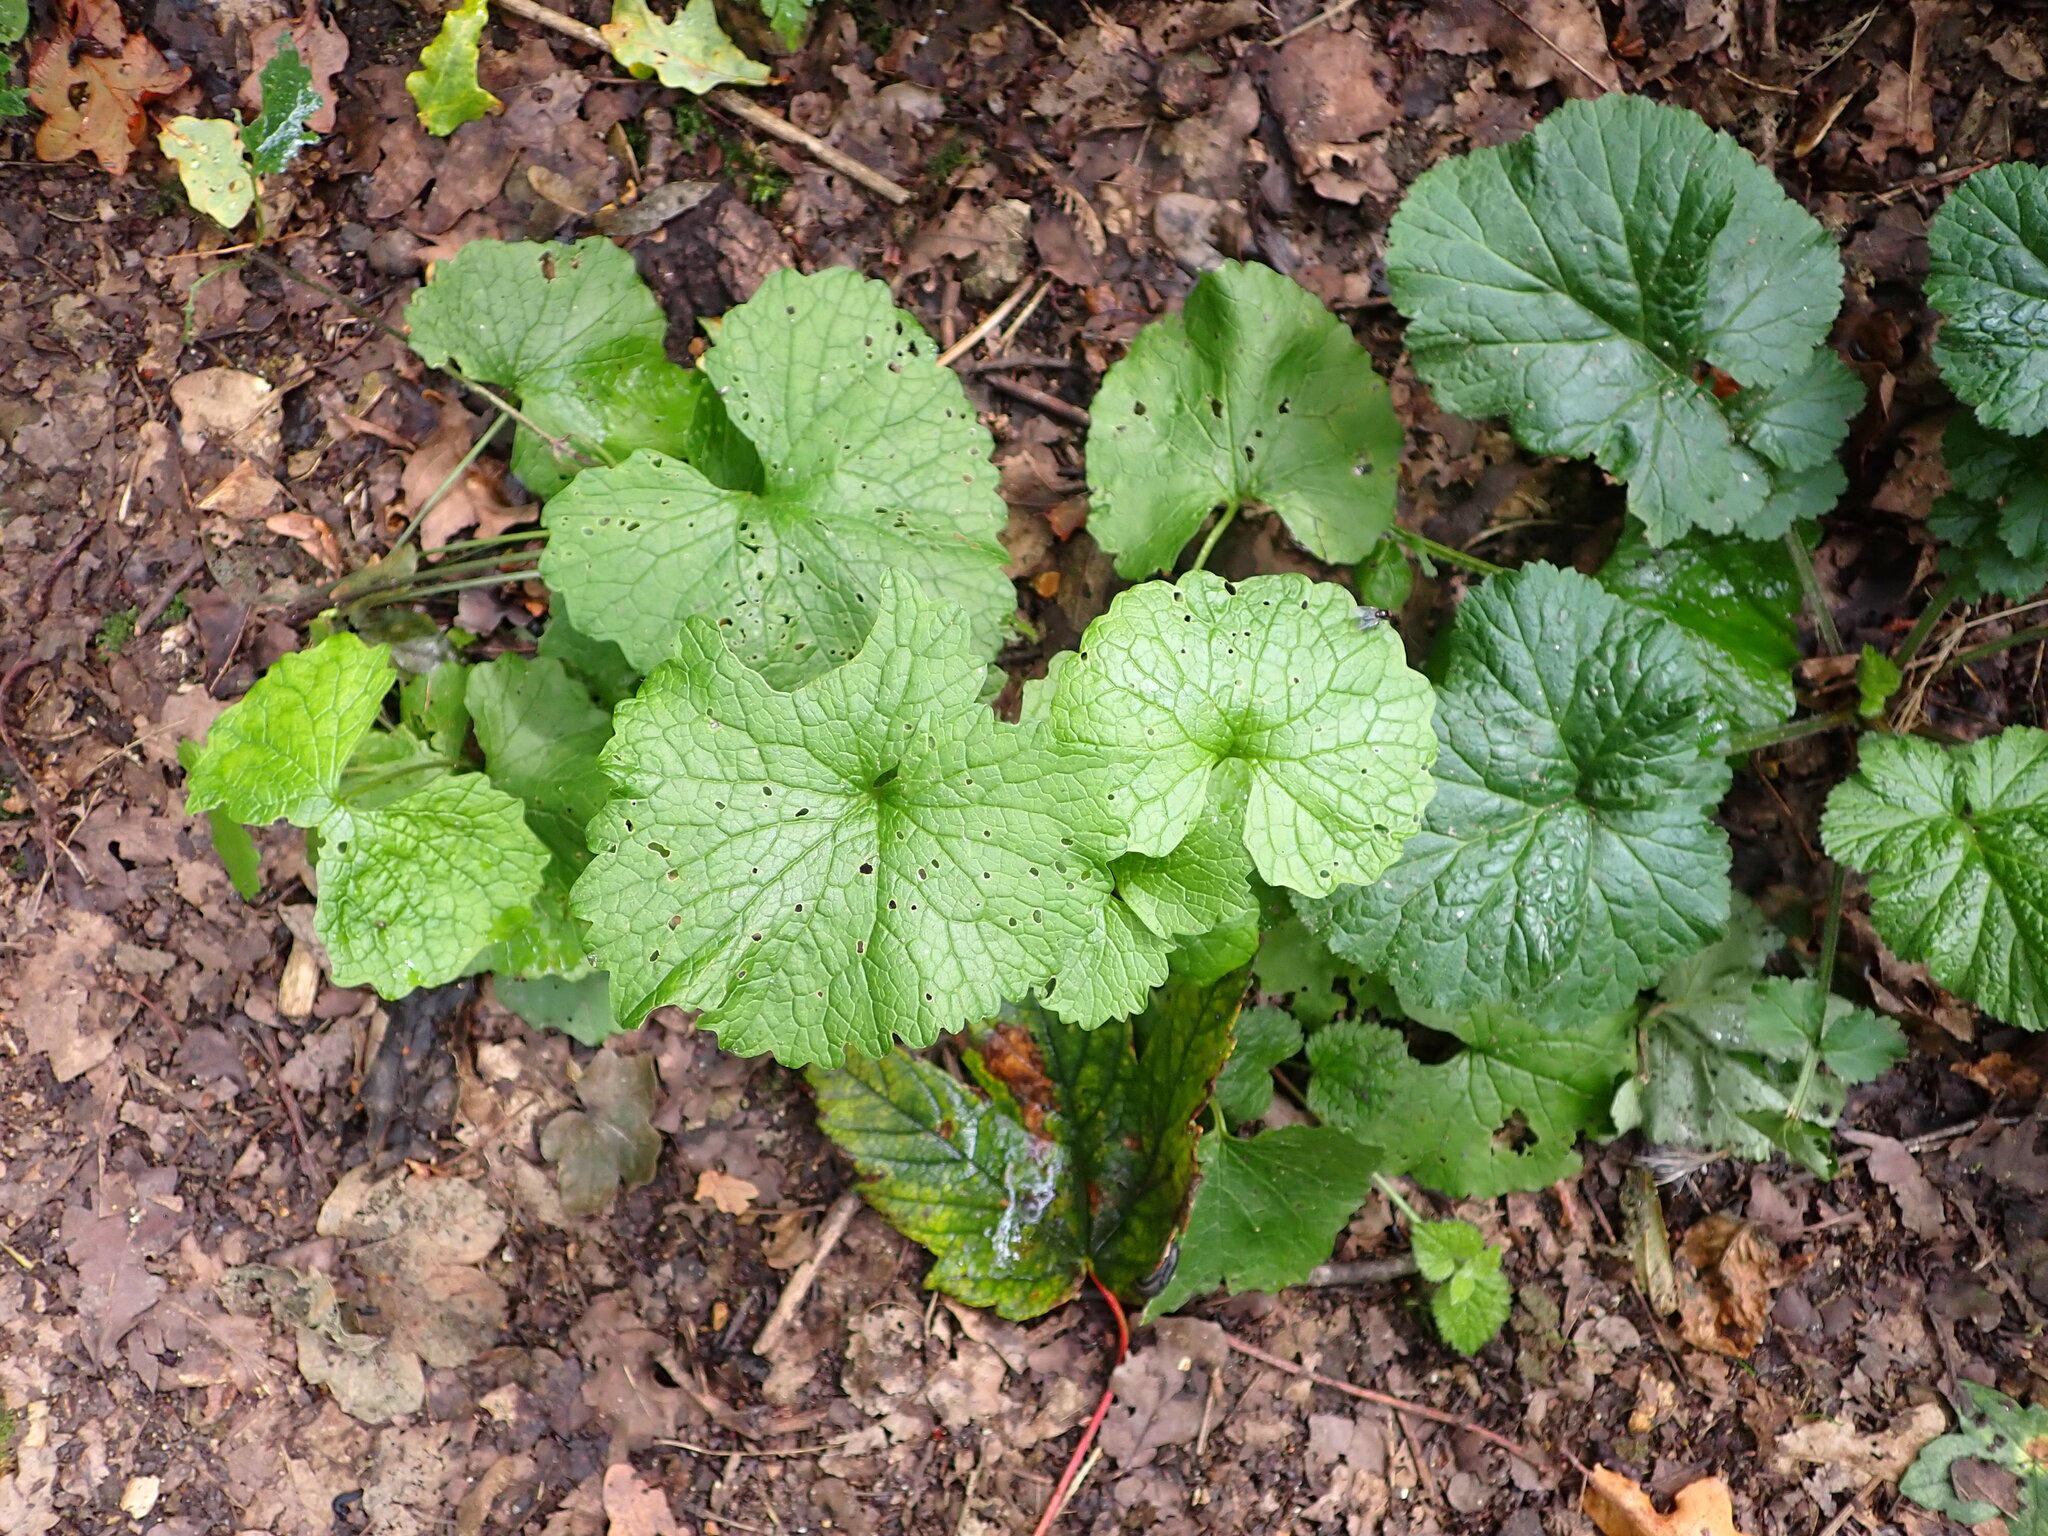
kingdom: Plantae
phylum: Tracheophyta
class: Magnoliopsida
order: Brassicales
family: Brassicaceae
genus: Alliaria
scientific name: Alliaria petiolata
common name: Garlic mustard
